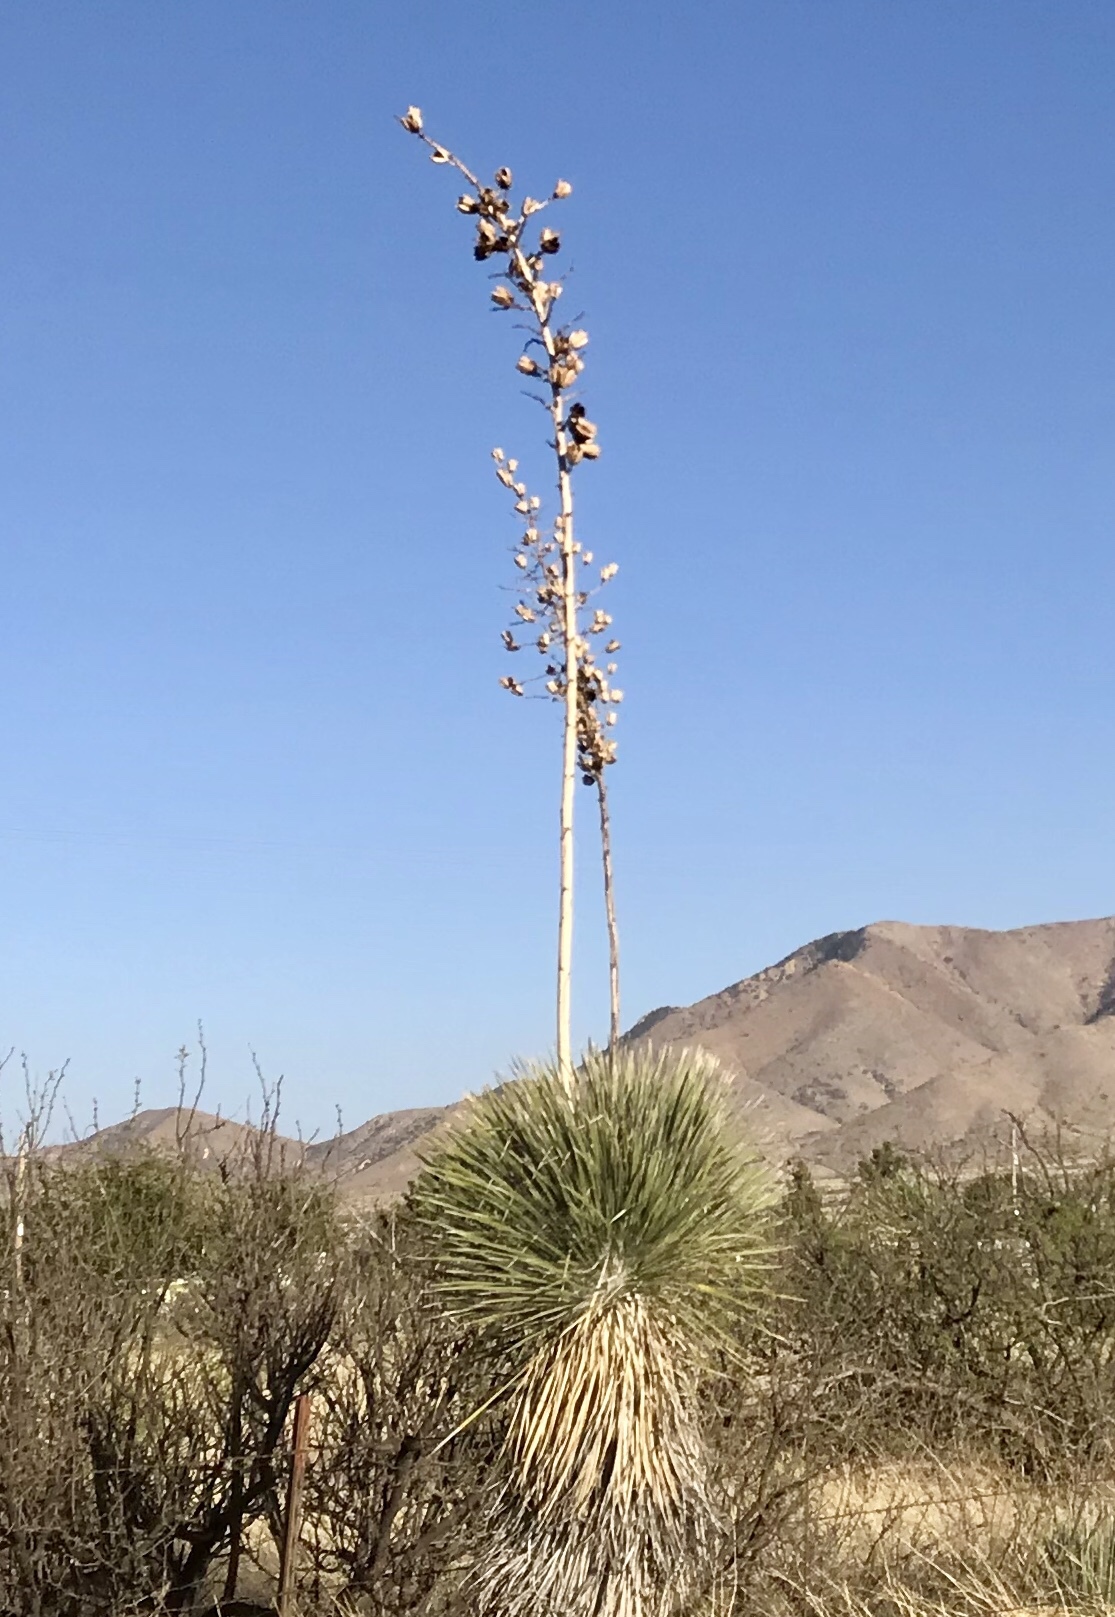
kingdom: Plantae
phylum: Tracheophyta
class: Liliopsida
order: Asparagales
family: Asparagaceae
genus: Yucca
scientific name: Yucca elata
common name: Palmella
